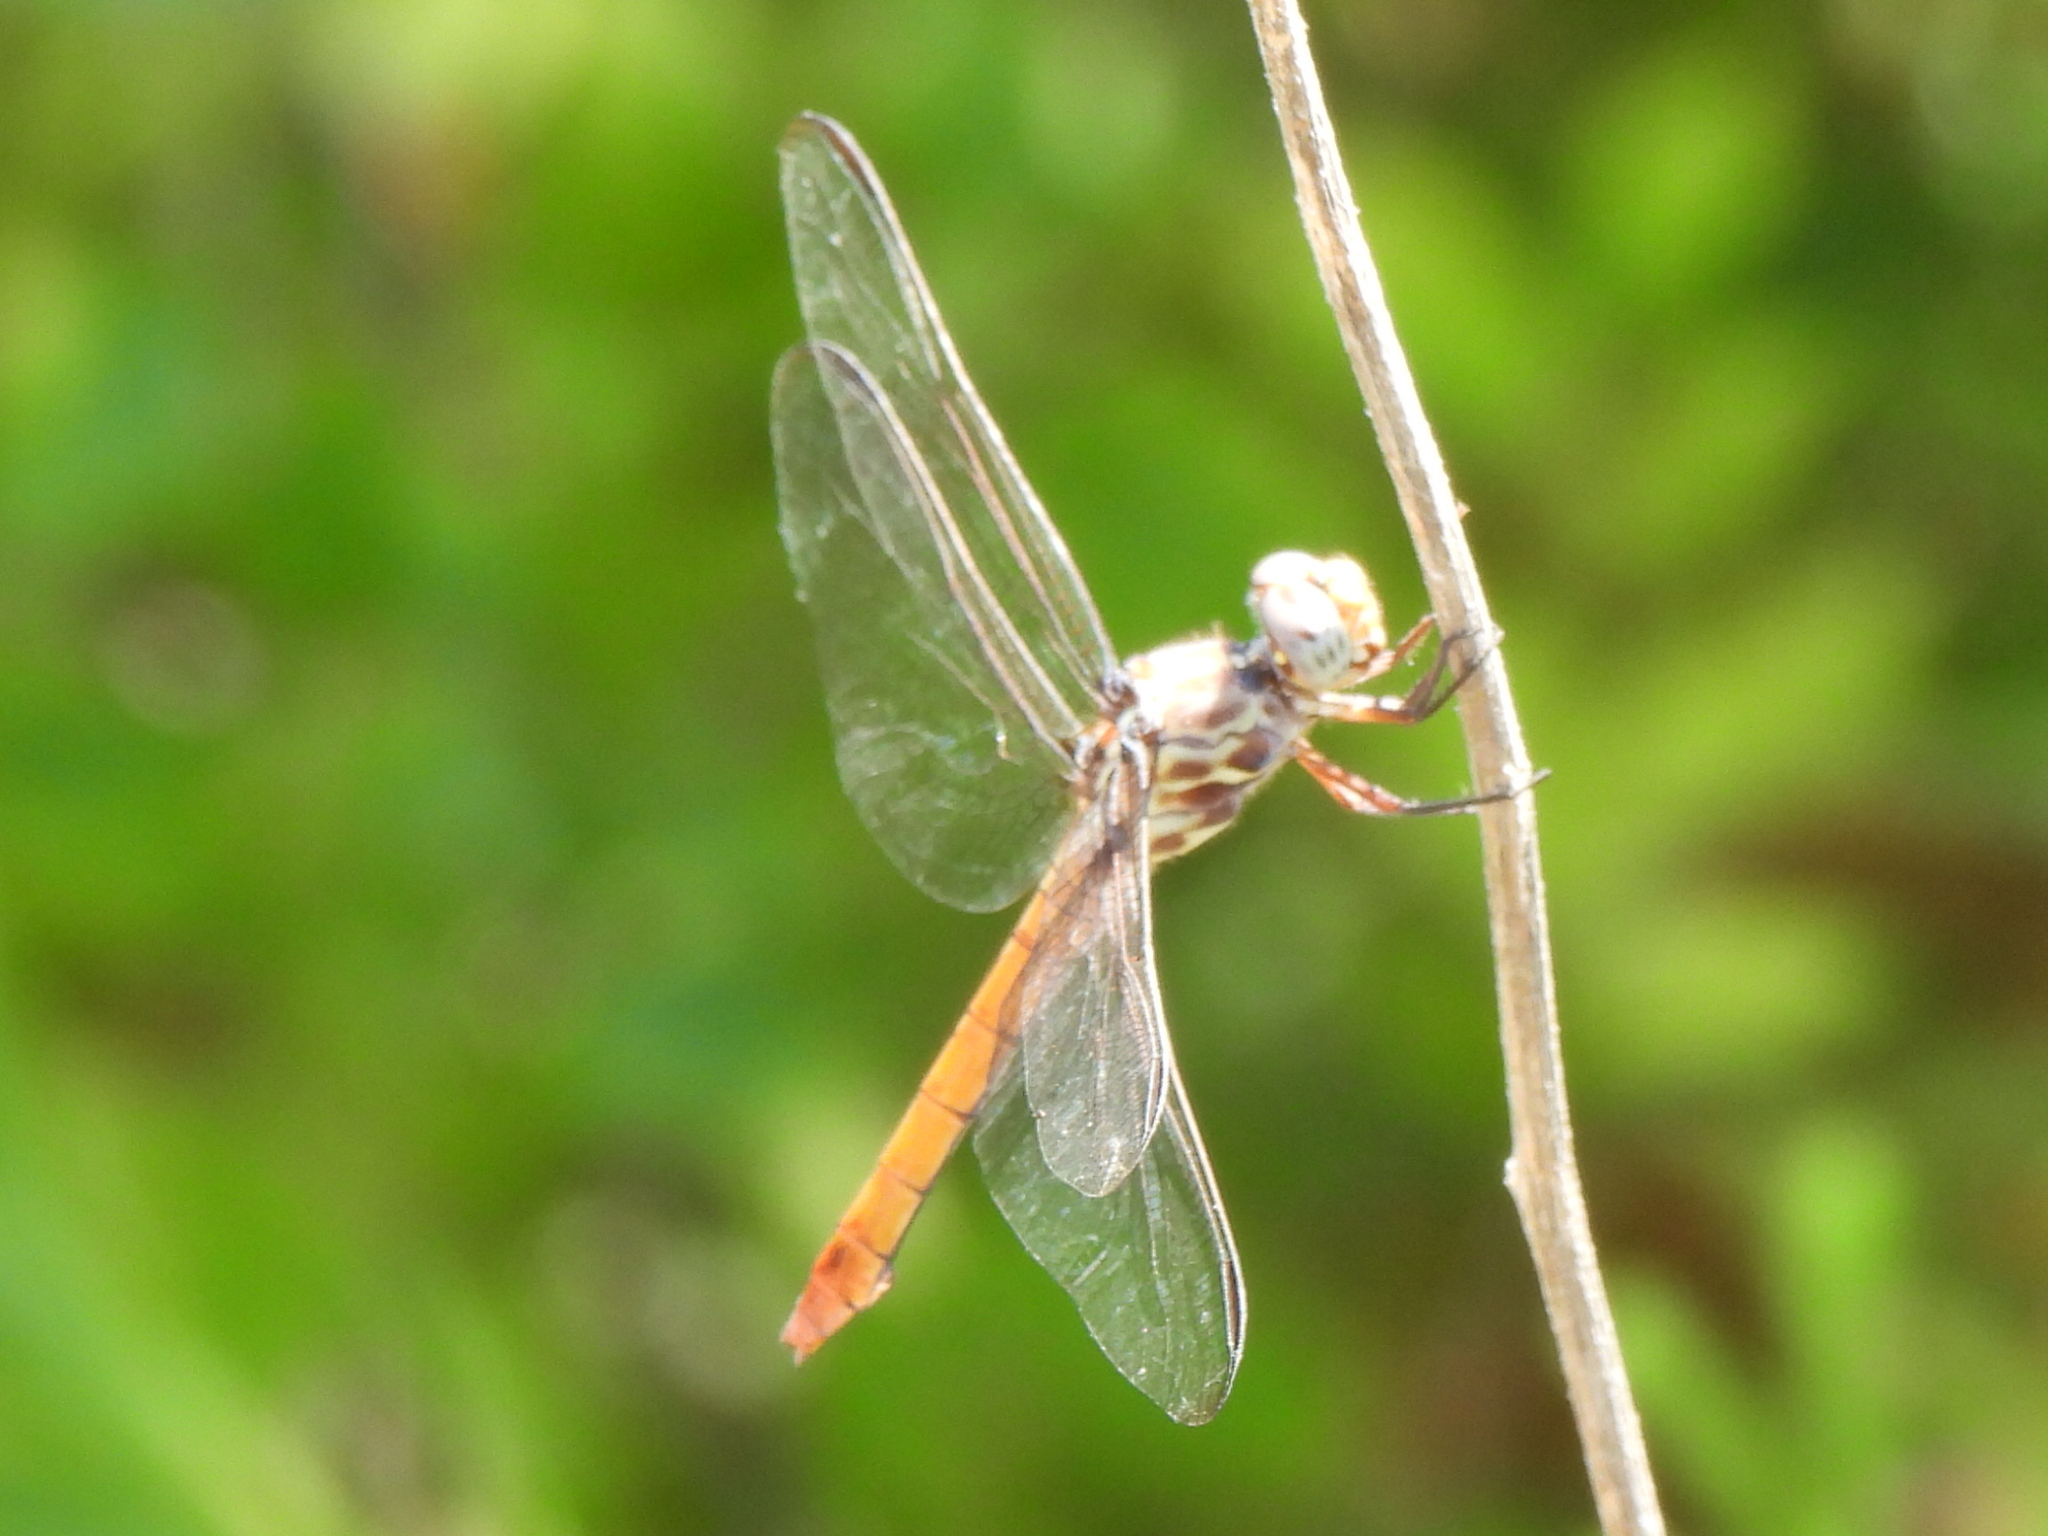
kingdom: Animalia
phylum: Arthropoda
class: Insecta
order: Odonata
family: Libellulidae
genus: Orthemis
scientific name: Orthemis ferruginea
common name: Roseate skimmer
